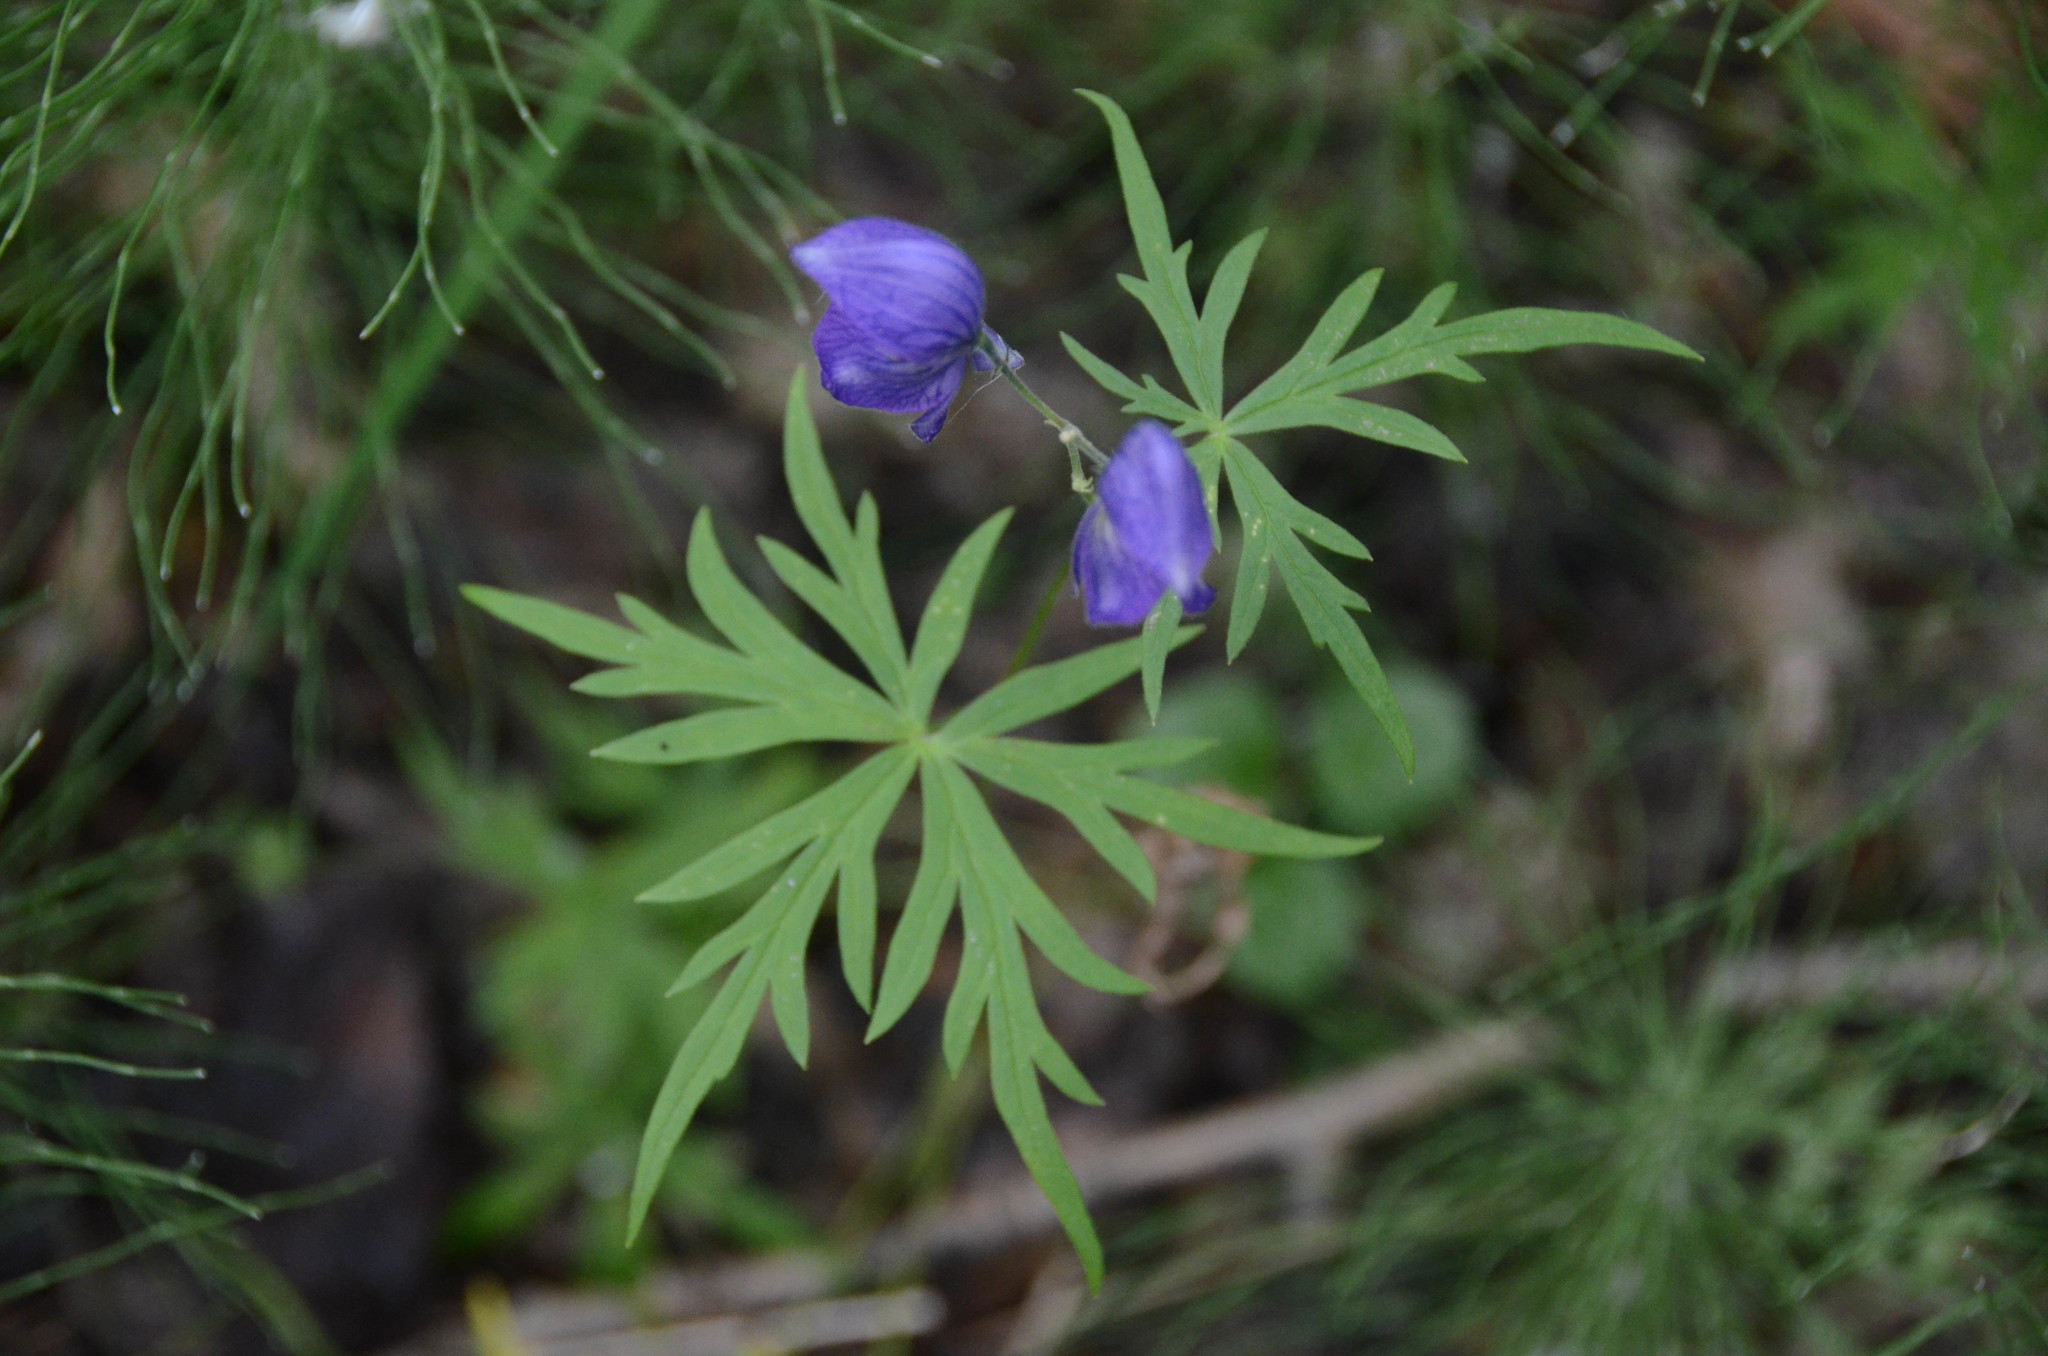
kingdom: Plantae
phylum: Tracheophyta
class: Magnoliopsida
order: Ranunculales
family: Ranunculaceae
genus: Aconitum
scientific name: Aconitum delphiniifolium
